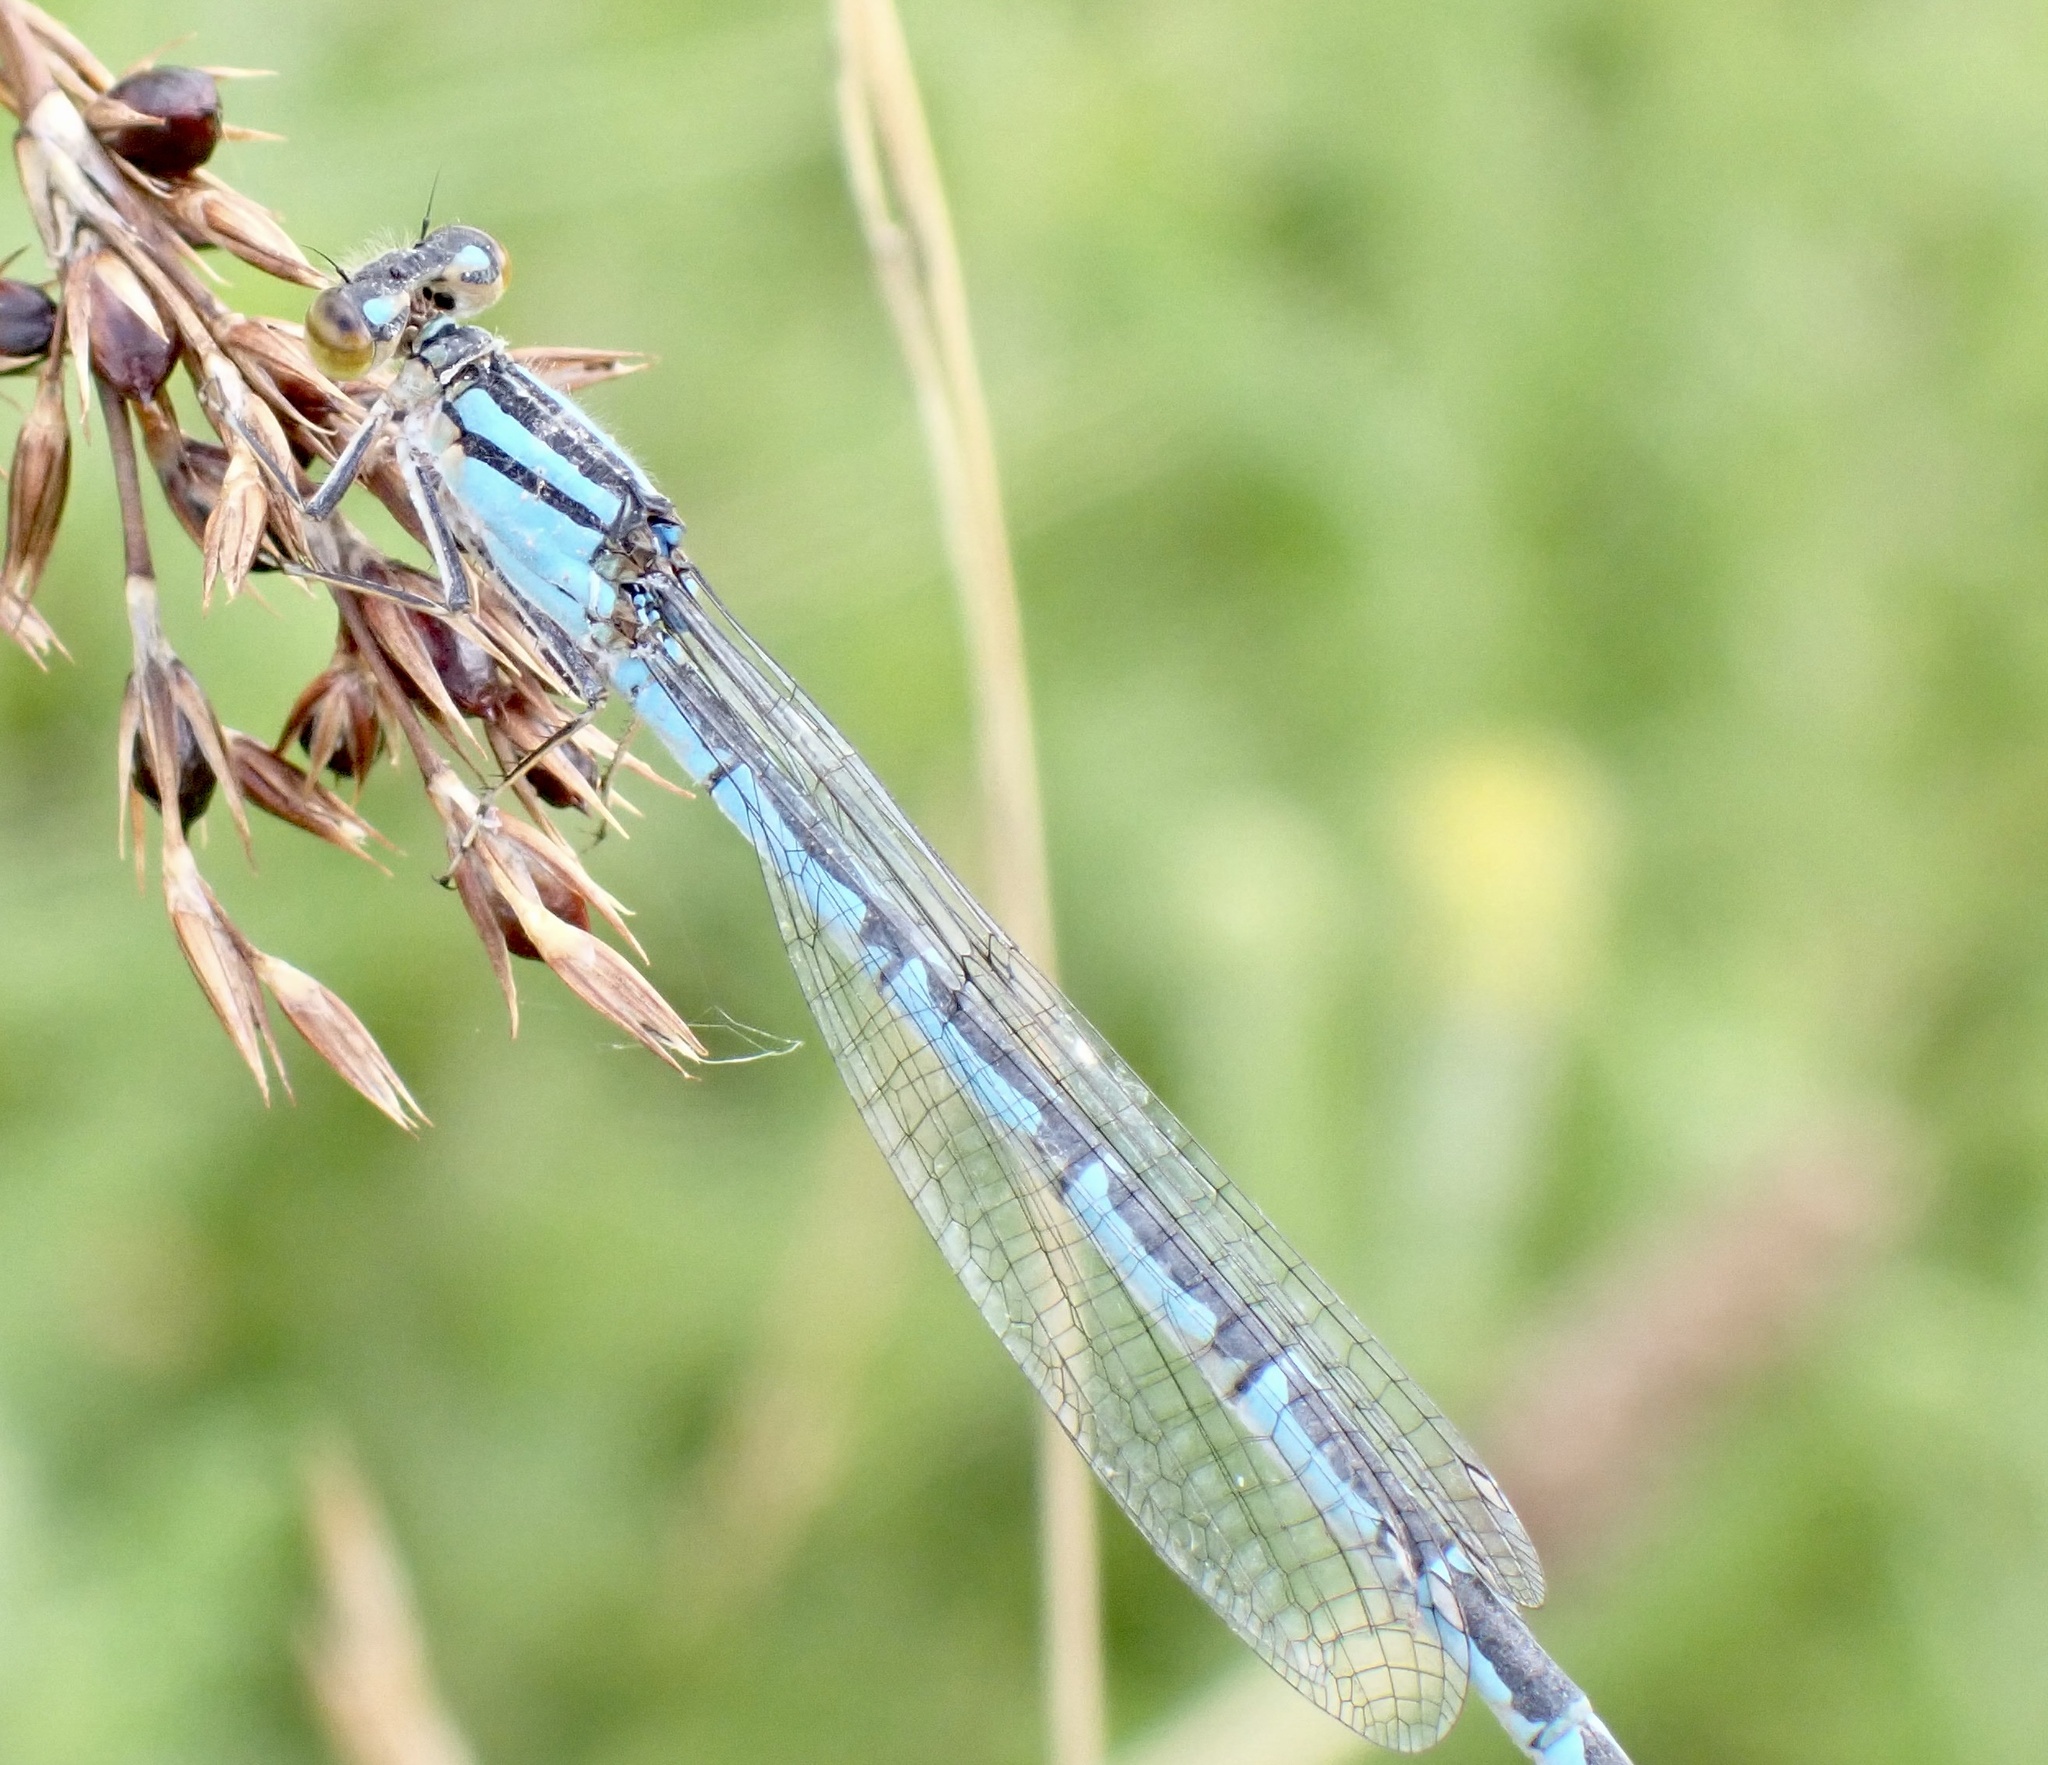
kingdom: Animalia
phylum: Arthropoda
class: Insecta
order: Odonata
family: Coenagrionidae
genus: Enallagma
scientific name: Enallagma cyathigerum
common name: Common blue damselfly
